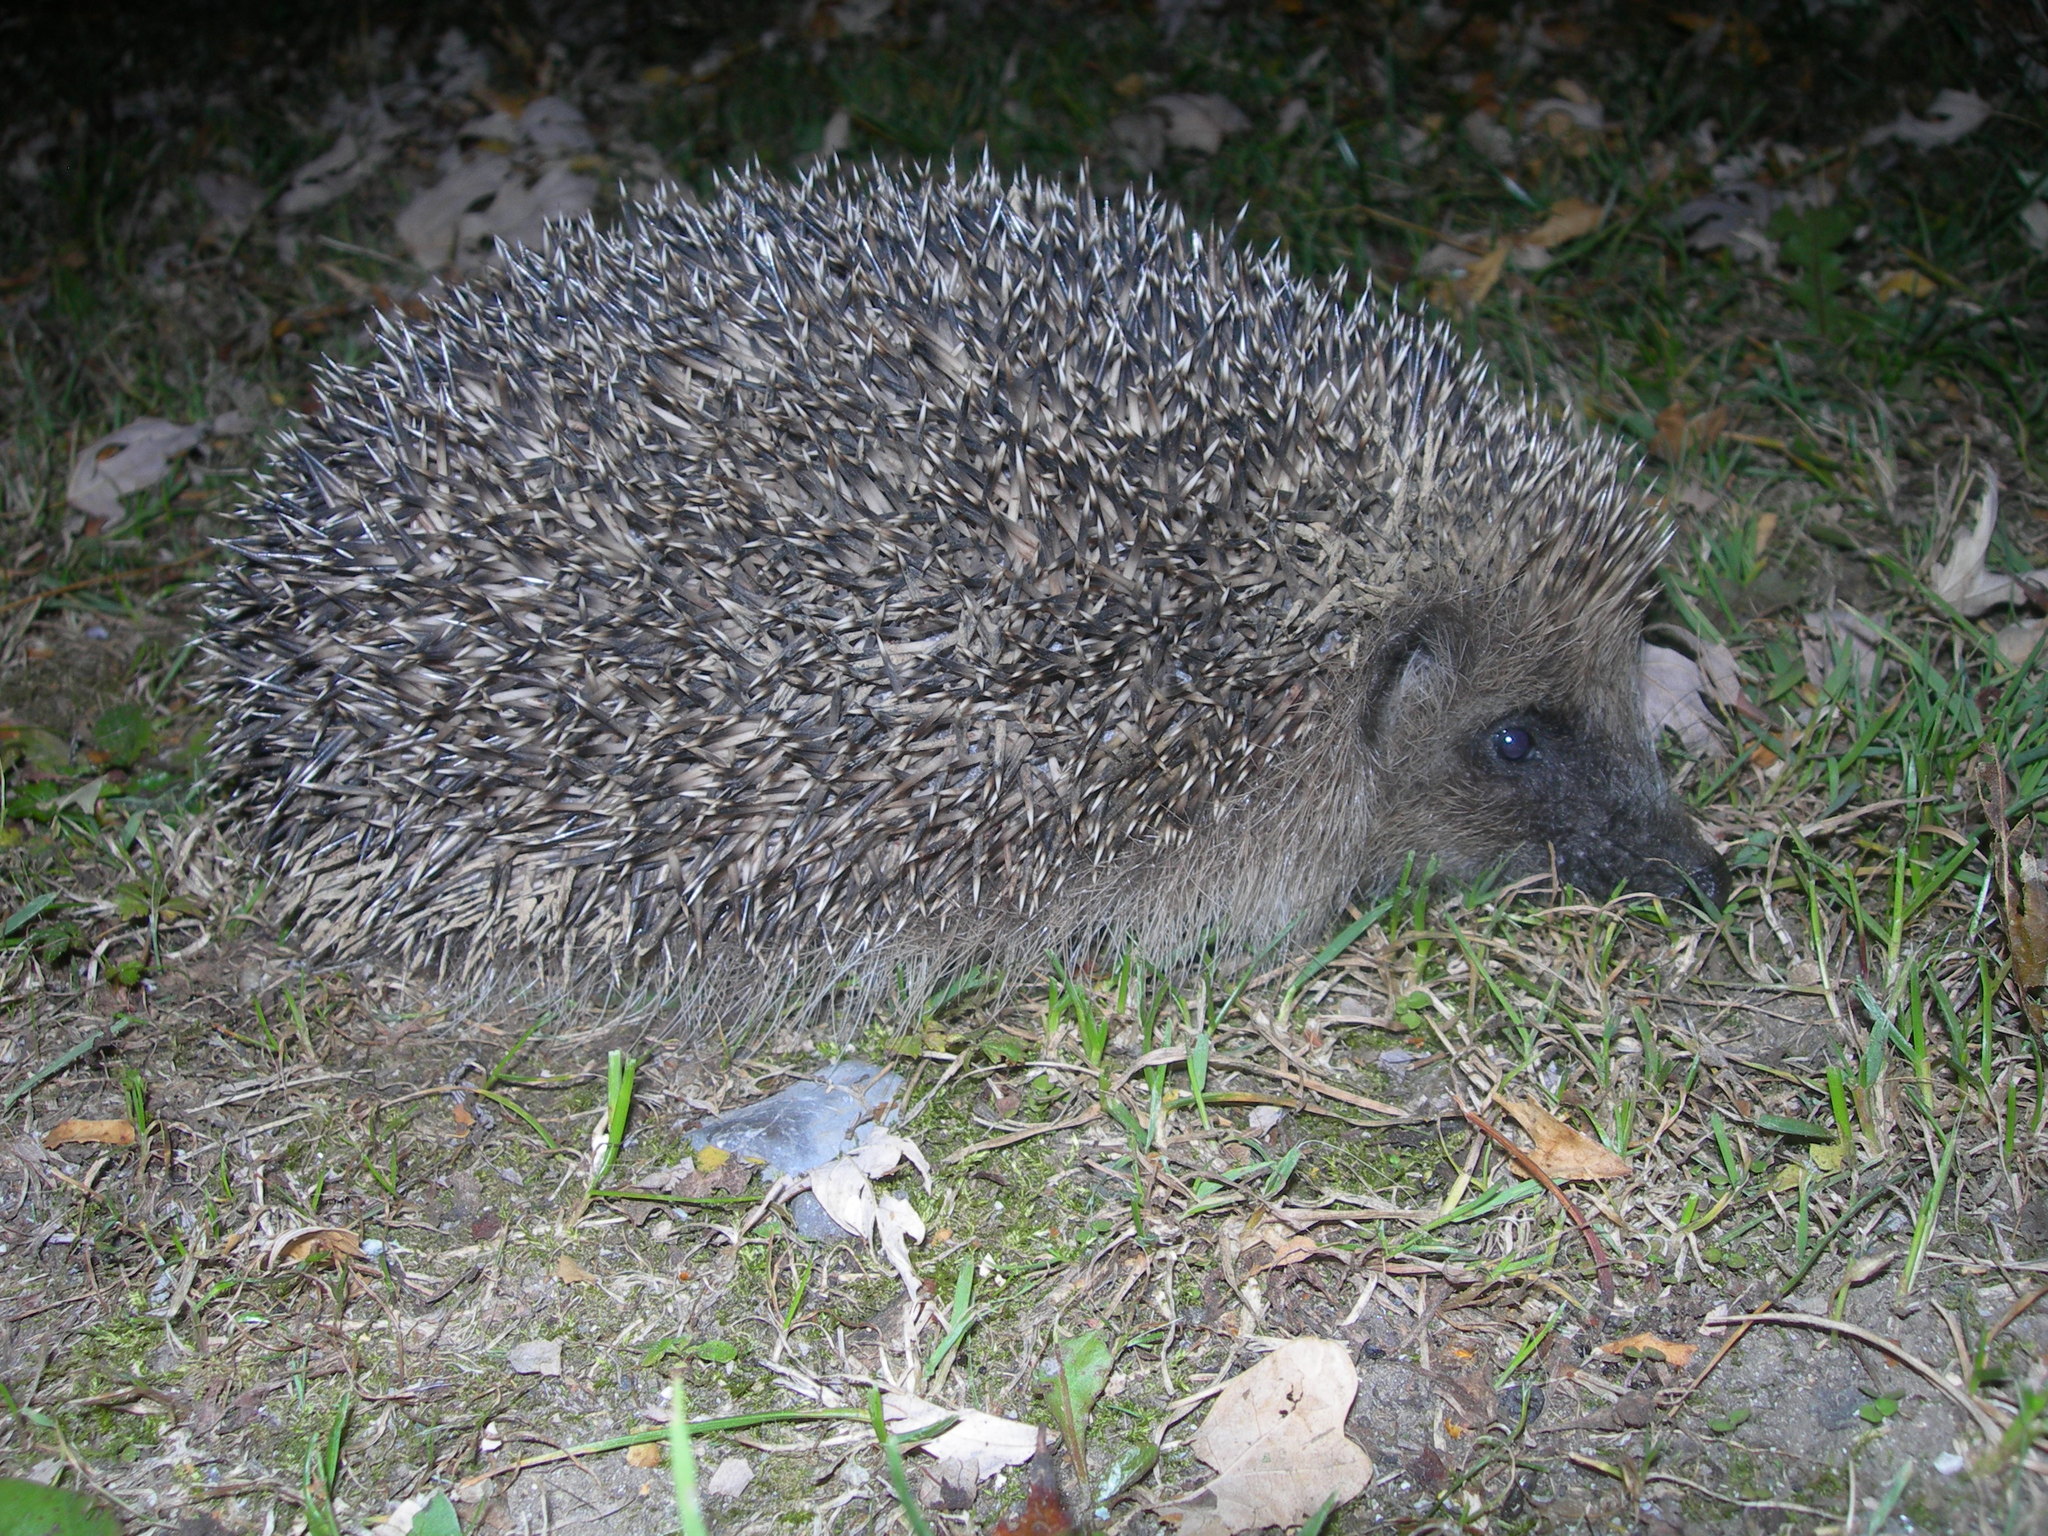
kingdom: Animalia
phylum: Chordata
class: Mammalia
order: Erinaceomorpha
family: Erinaceidae
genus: Erinaceus
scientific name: Erinaceus europaeus
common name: West european hedgehog
